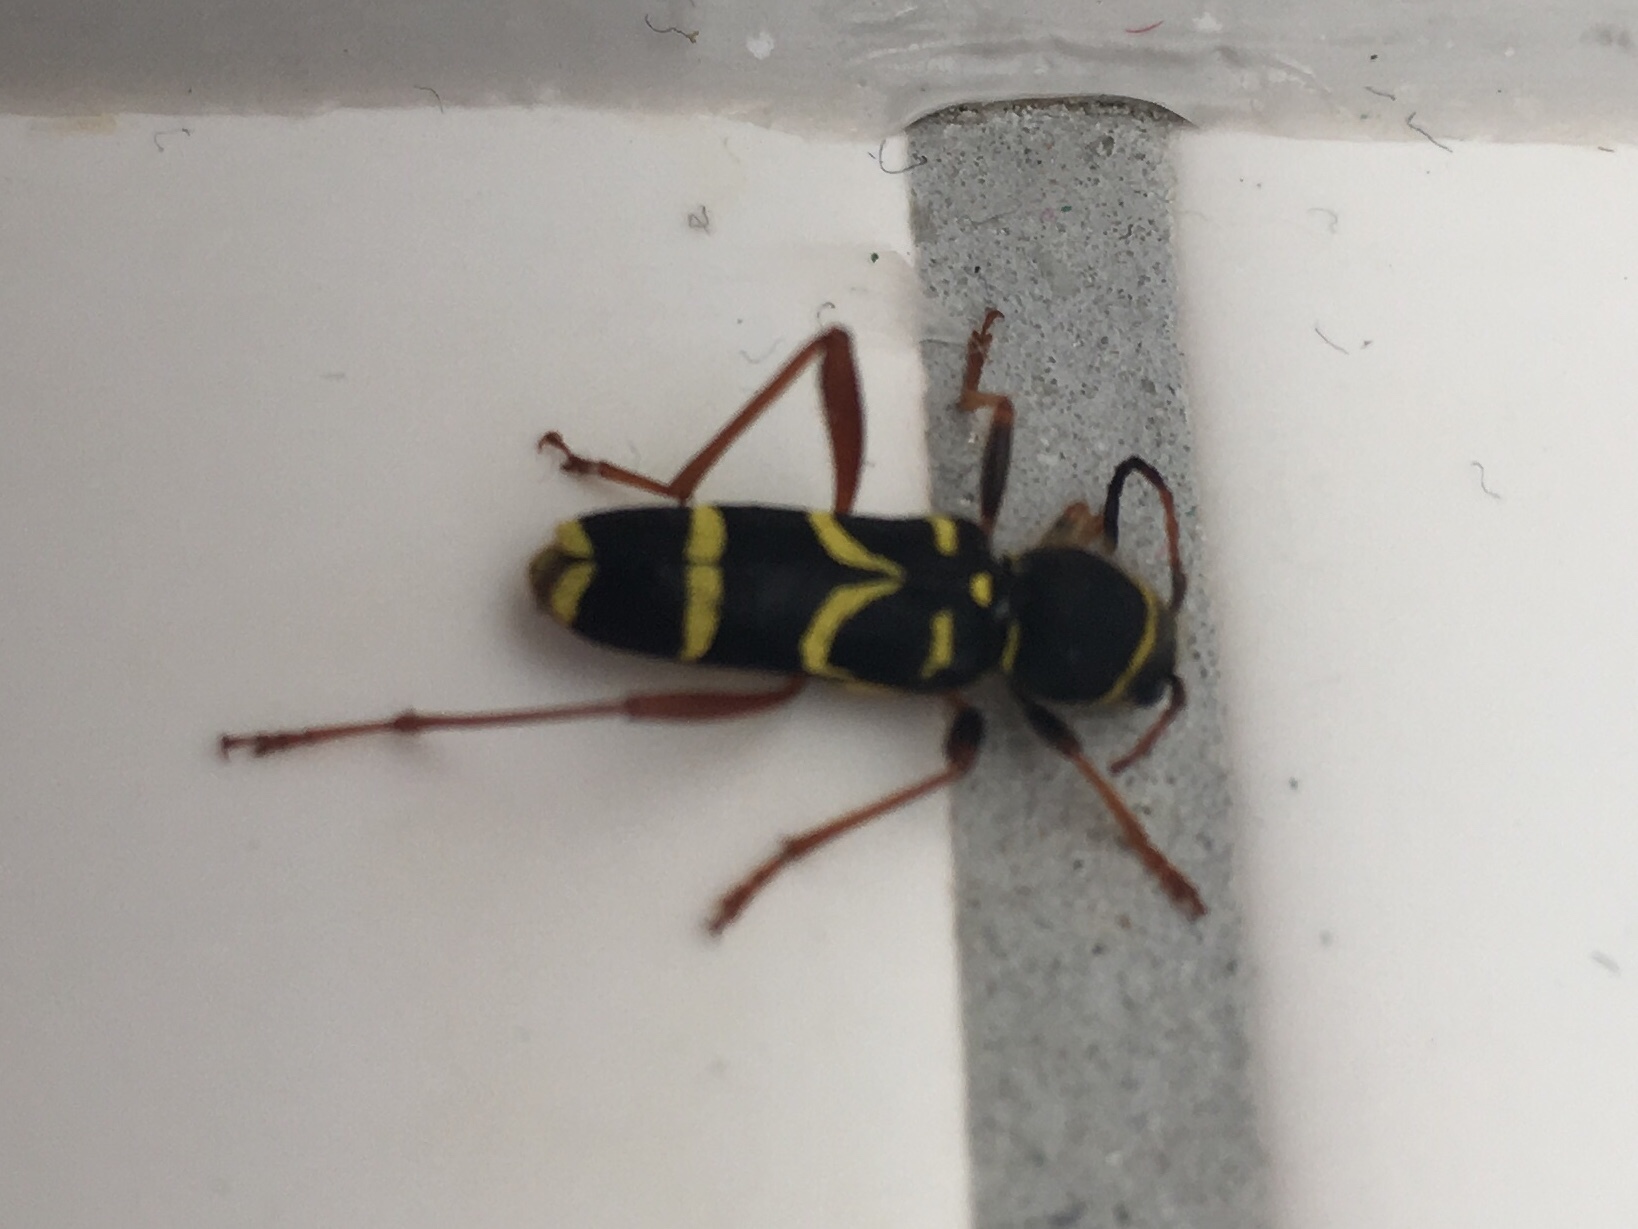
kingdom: Animalia
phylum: Arthropoda
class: Insecta
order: Coleoptera
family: Cerambycidae
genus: Clytus
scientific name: Clytus arietis
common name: Wasp beetle
